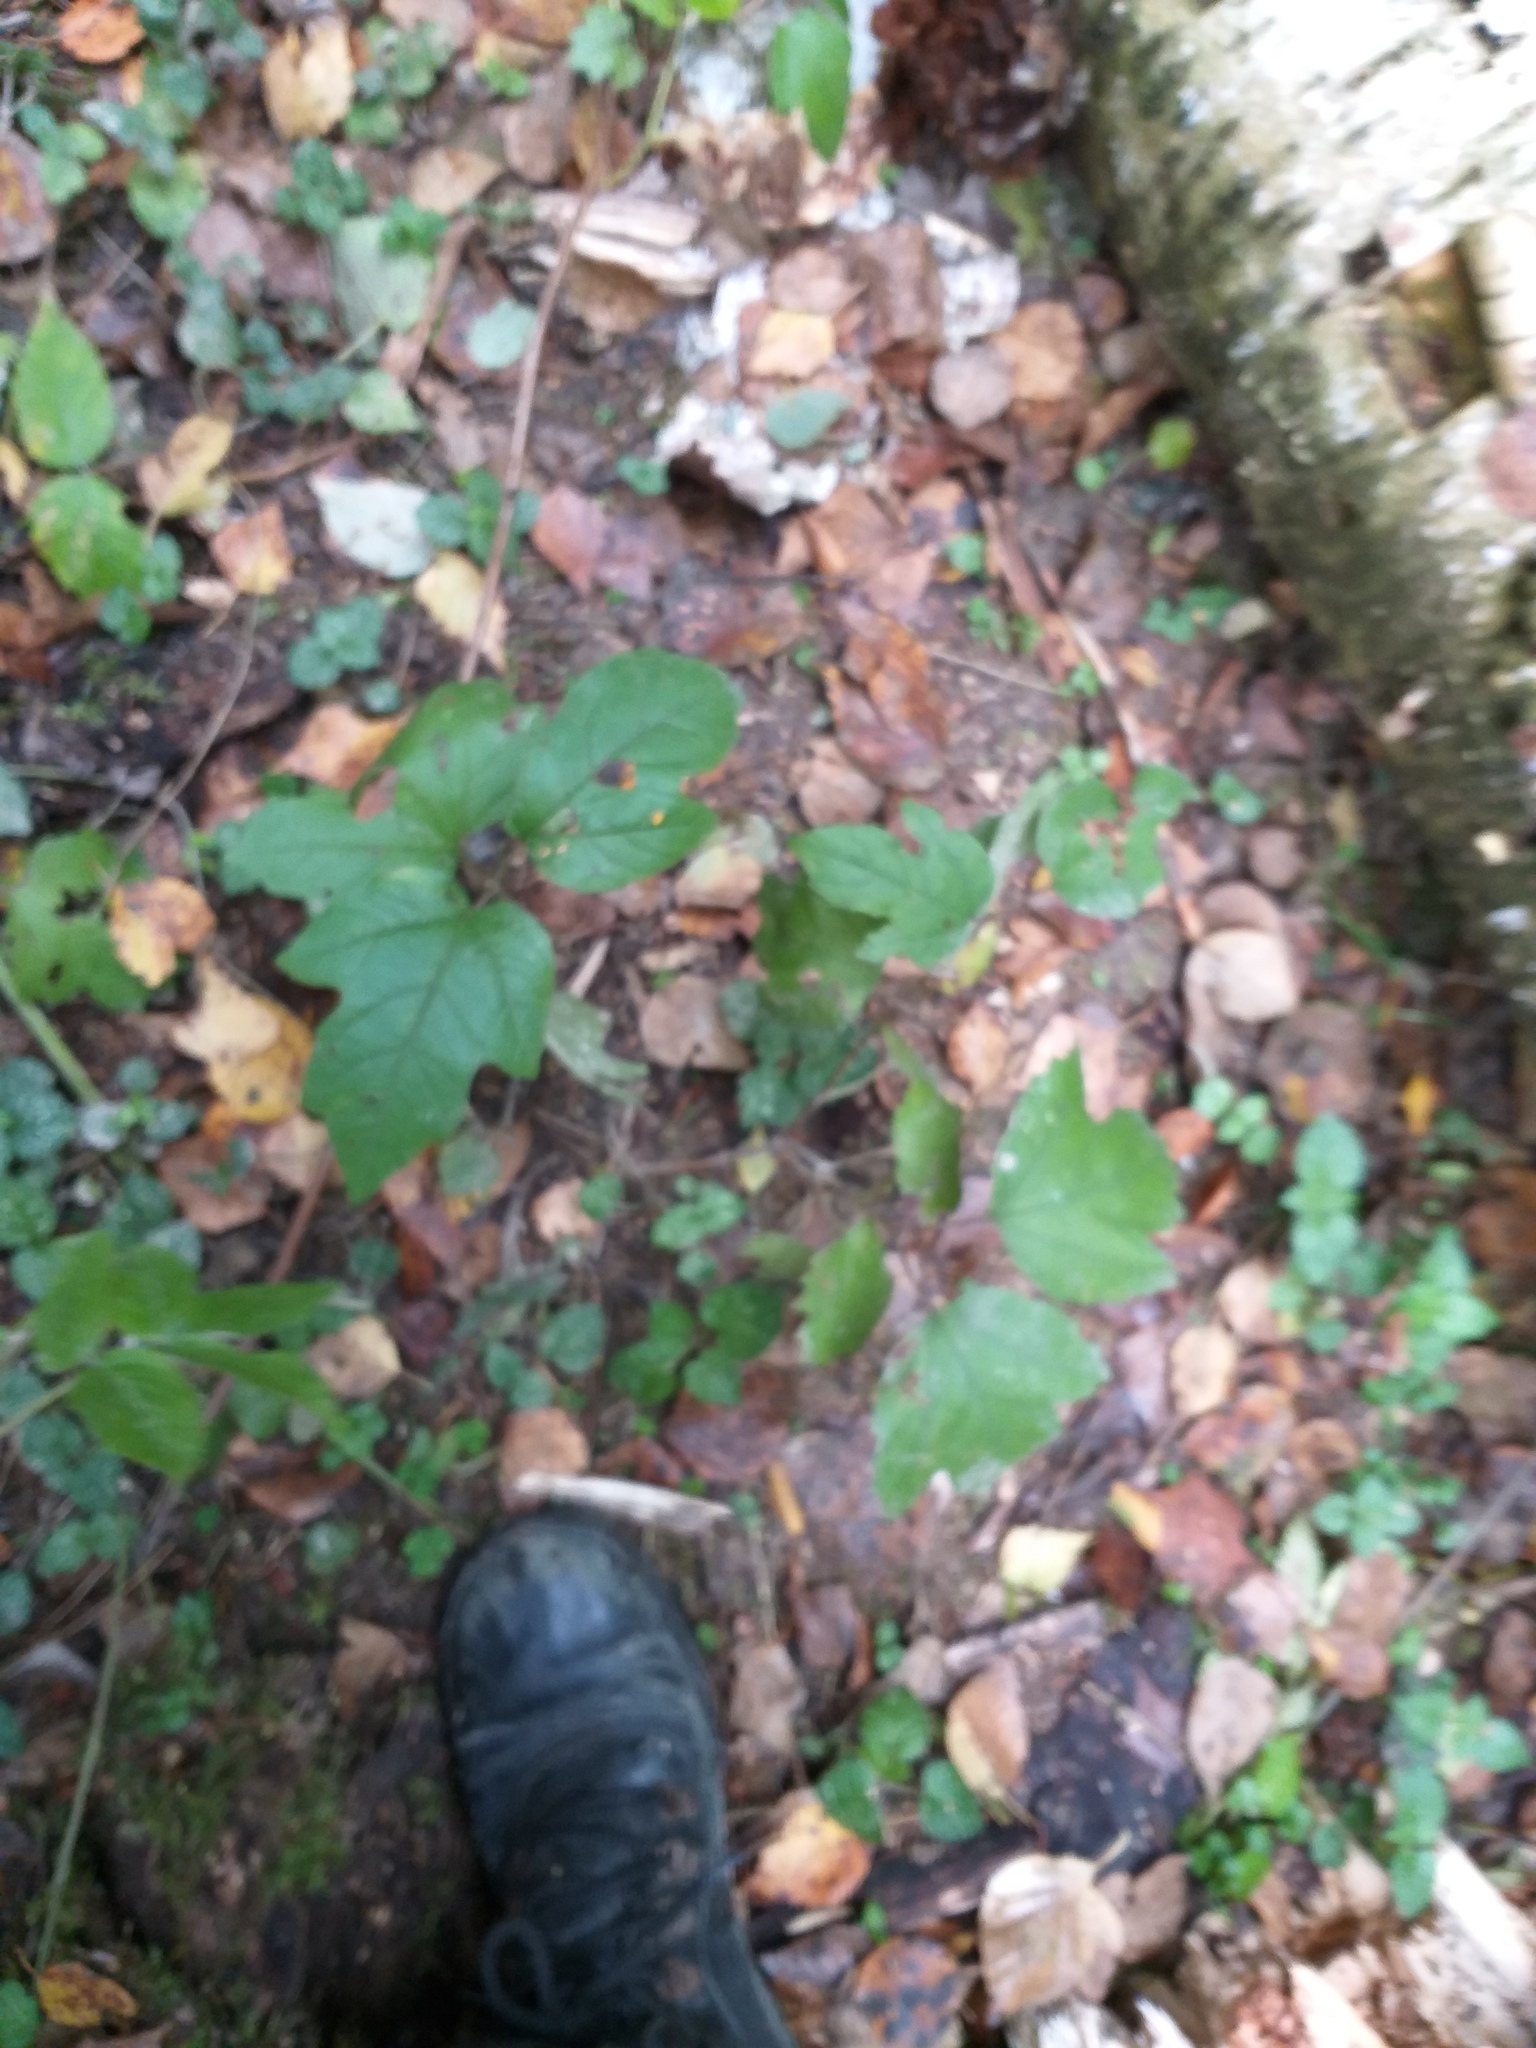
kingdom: Plantae
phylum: Tracheophyta
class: Magnoliopsida
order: Dipsacales
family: Viburnaceae
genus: Viburnum
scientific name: Viburnum opulus
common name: Guelder-rose
